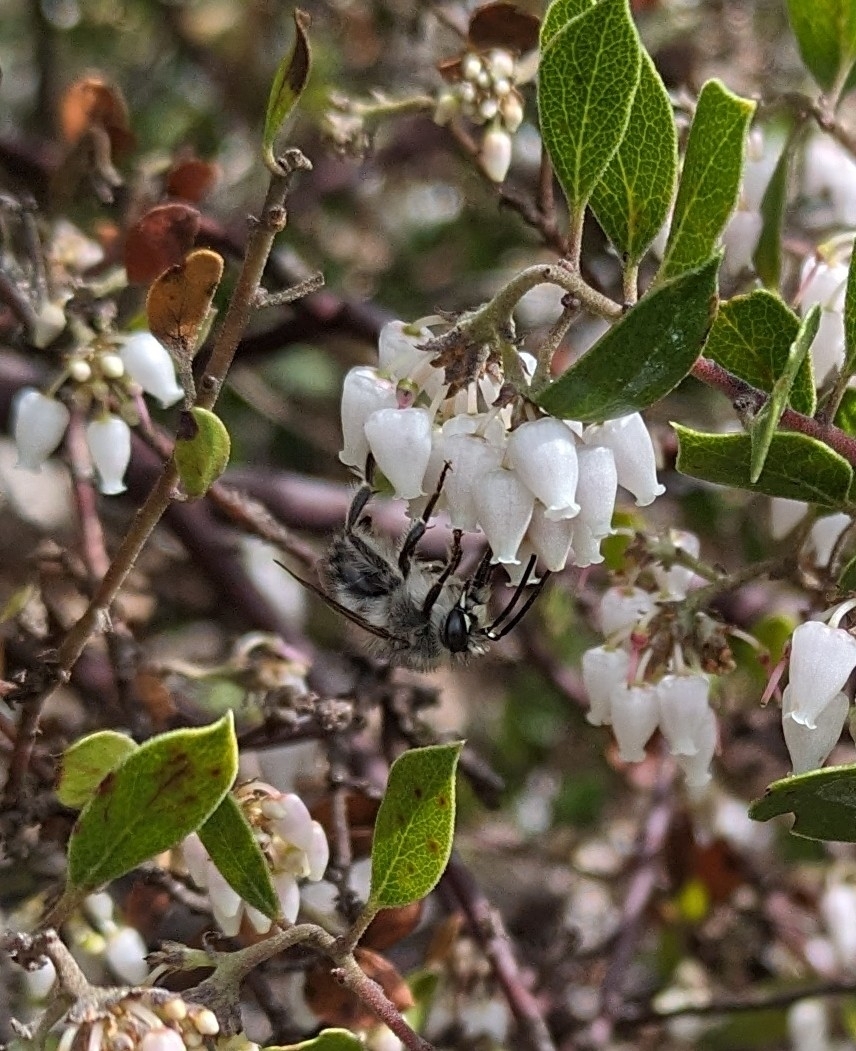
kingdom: Animalia
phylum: Arthropoda
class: Insecta
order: Hymenoptera
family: Apidae
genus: Habropoda
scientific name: Habropoda depressa
